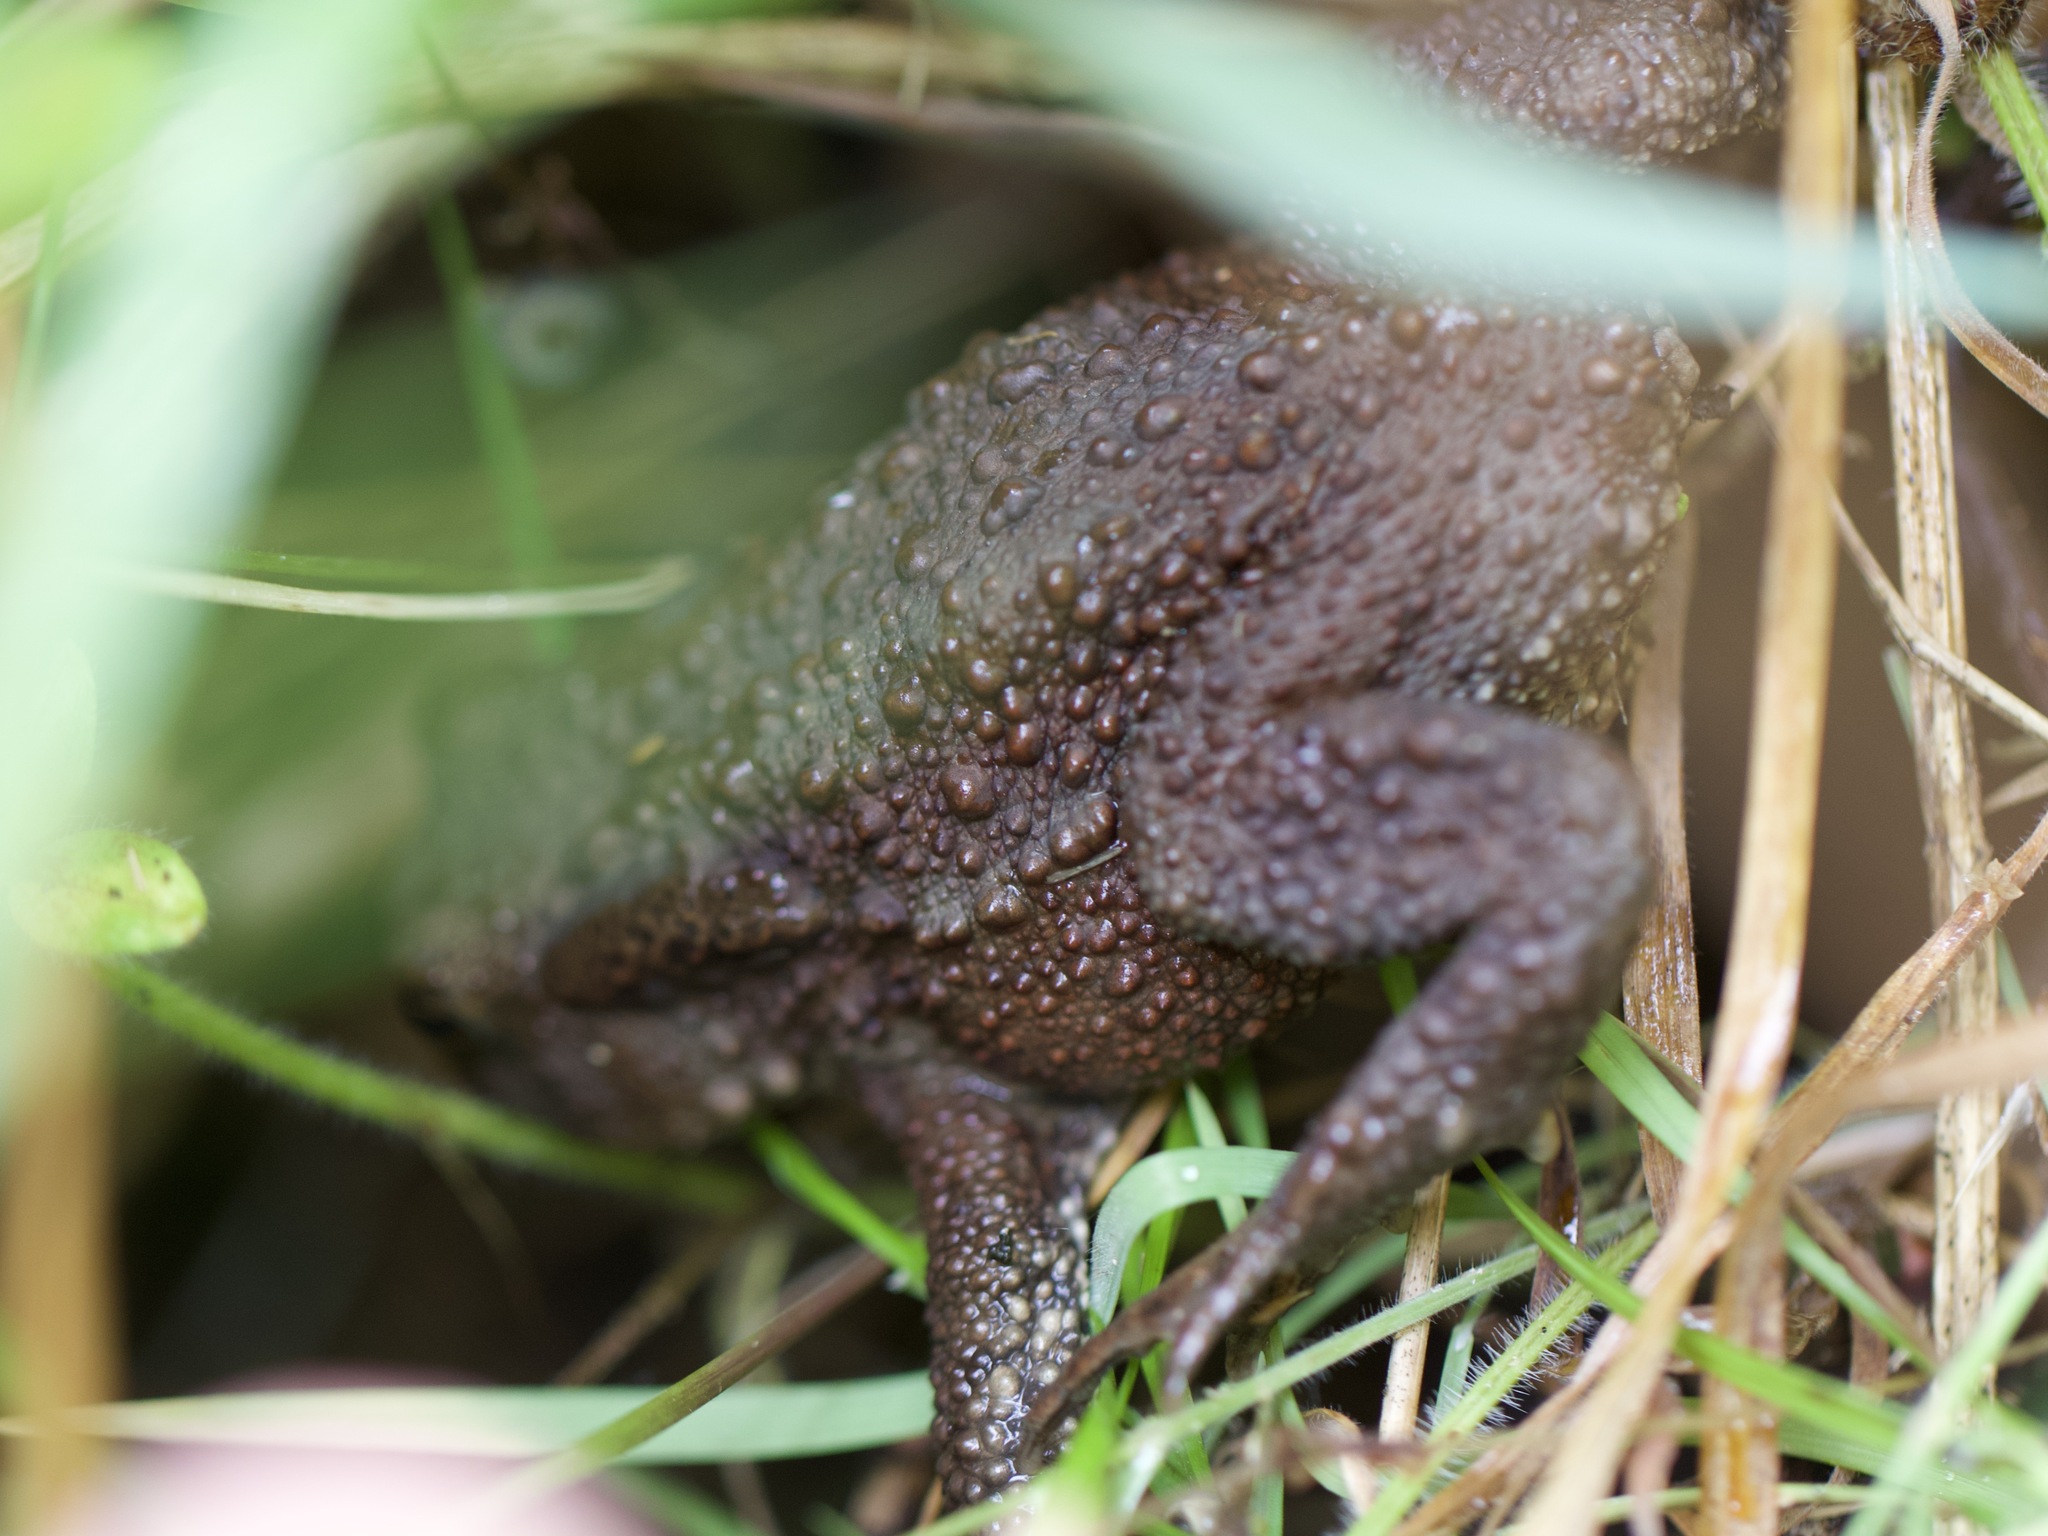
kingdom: Animalia
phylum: Chordata
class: Amphibia
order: Anura
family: Bufonidae
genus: Bufo
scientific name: Bufo bufo
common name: Common toad
